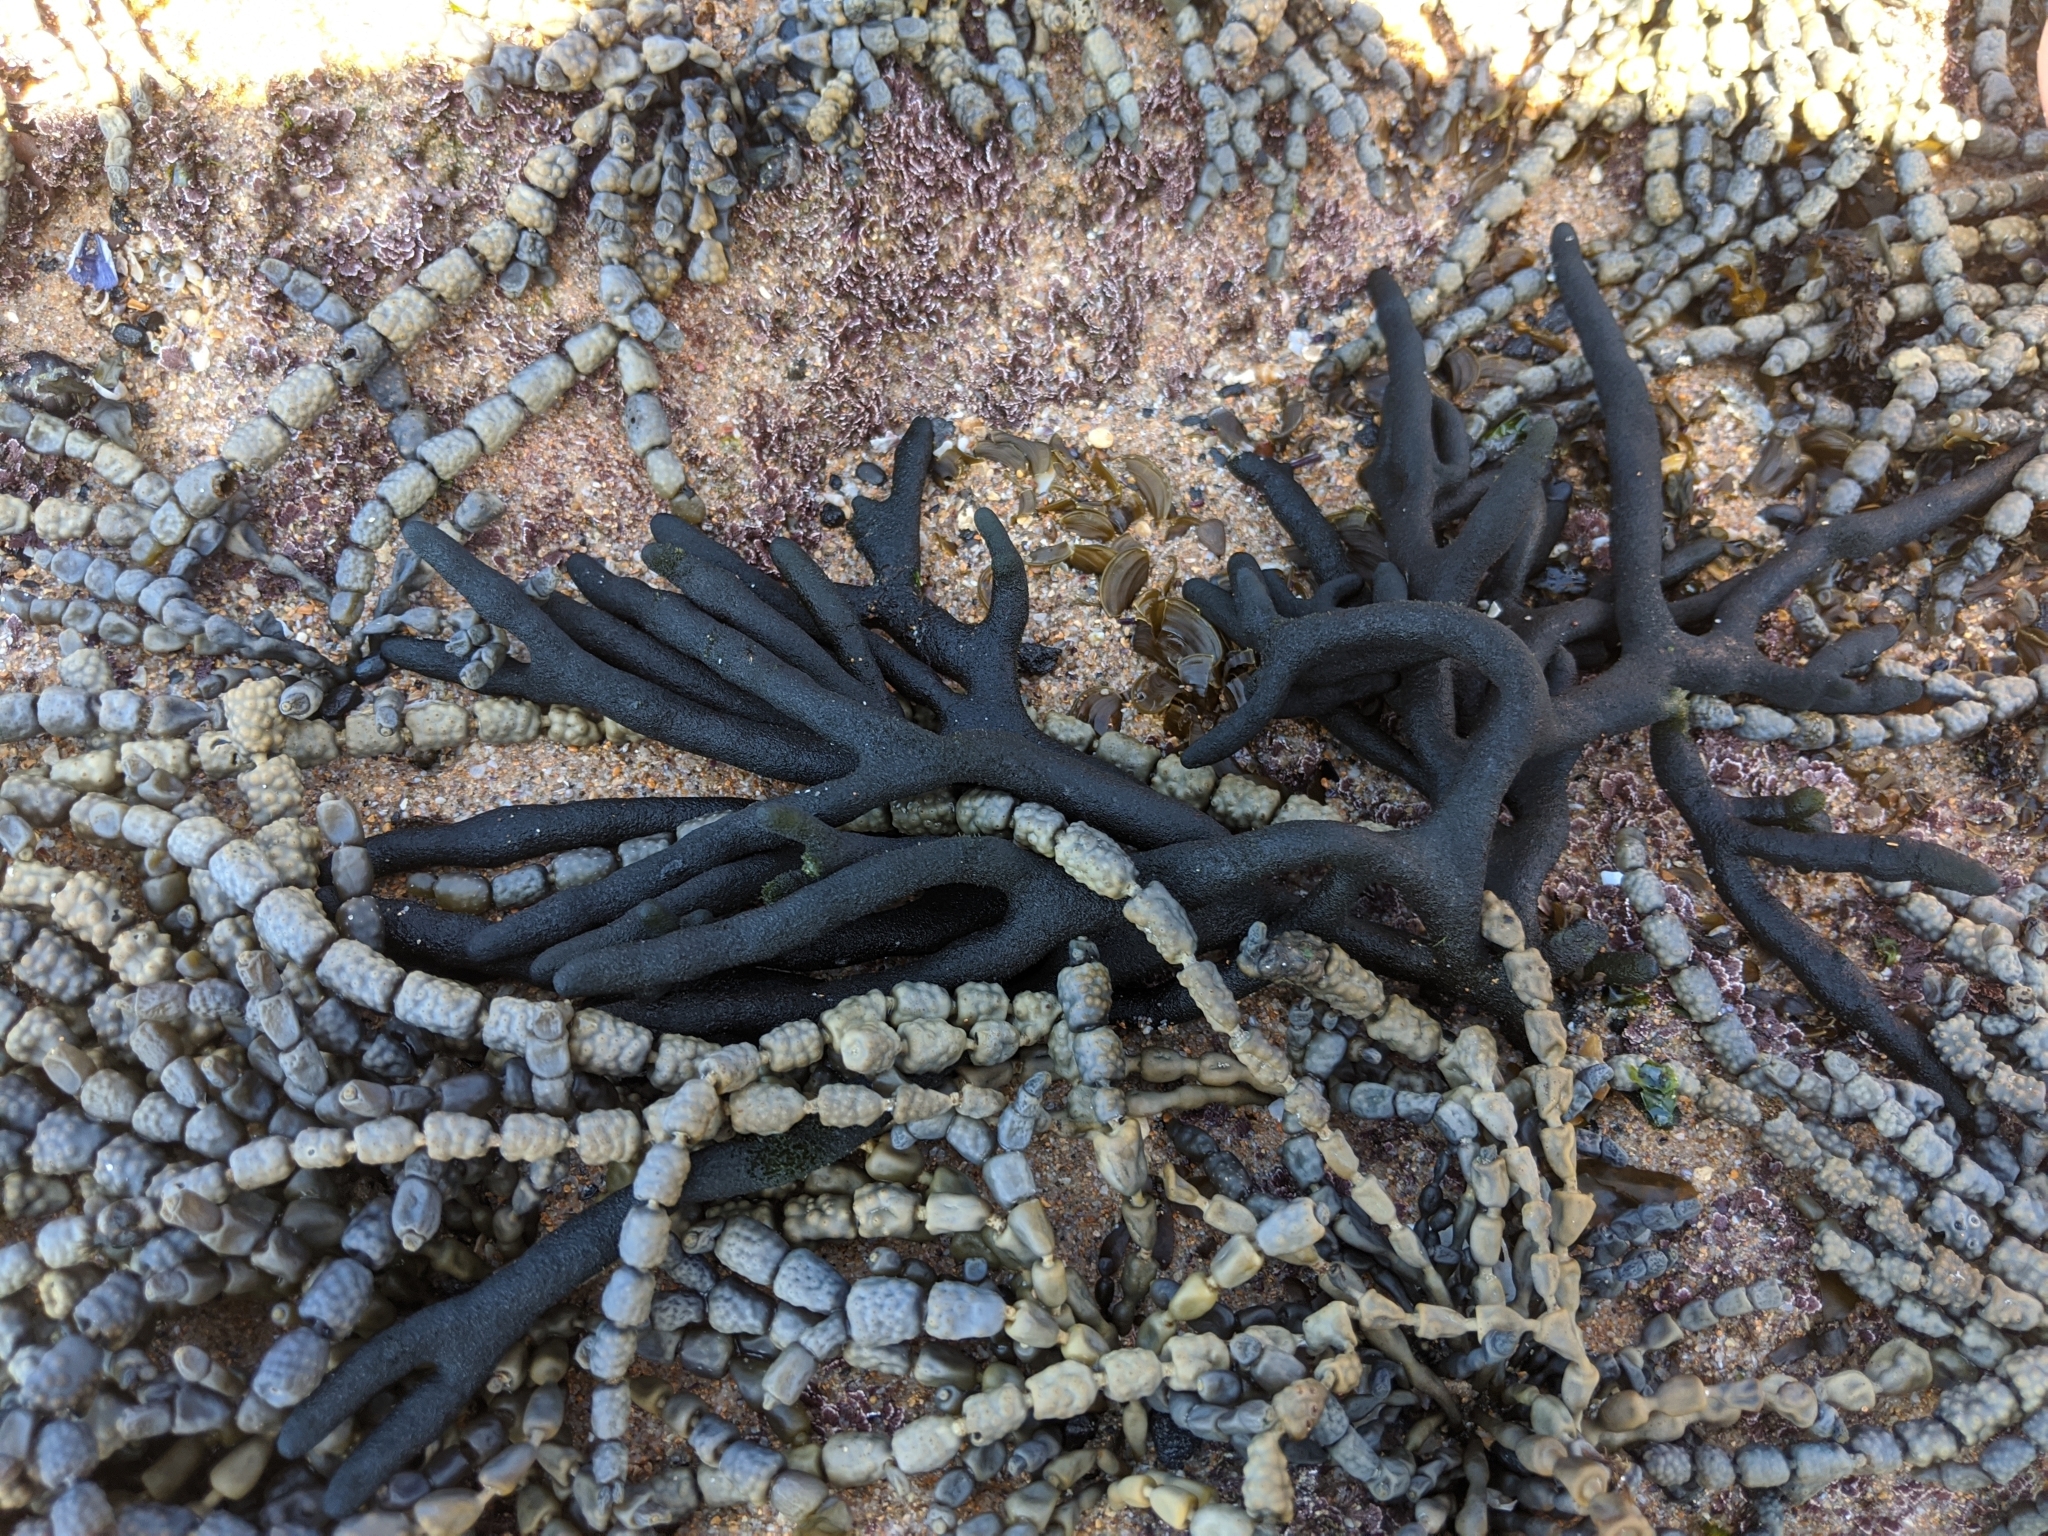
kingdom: Plantae
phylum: Chlorophyta
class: Ulvophyceae
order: Bryopsidales
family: Codiaceae
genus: Codium
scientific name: Codium fragile
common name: Dead man's fingers
